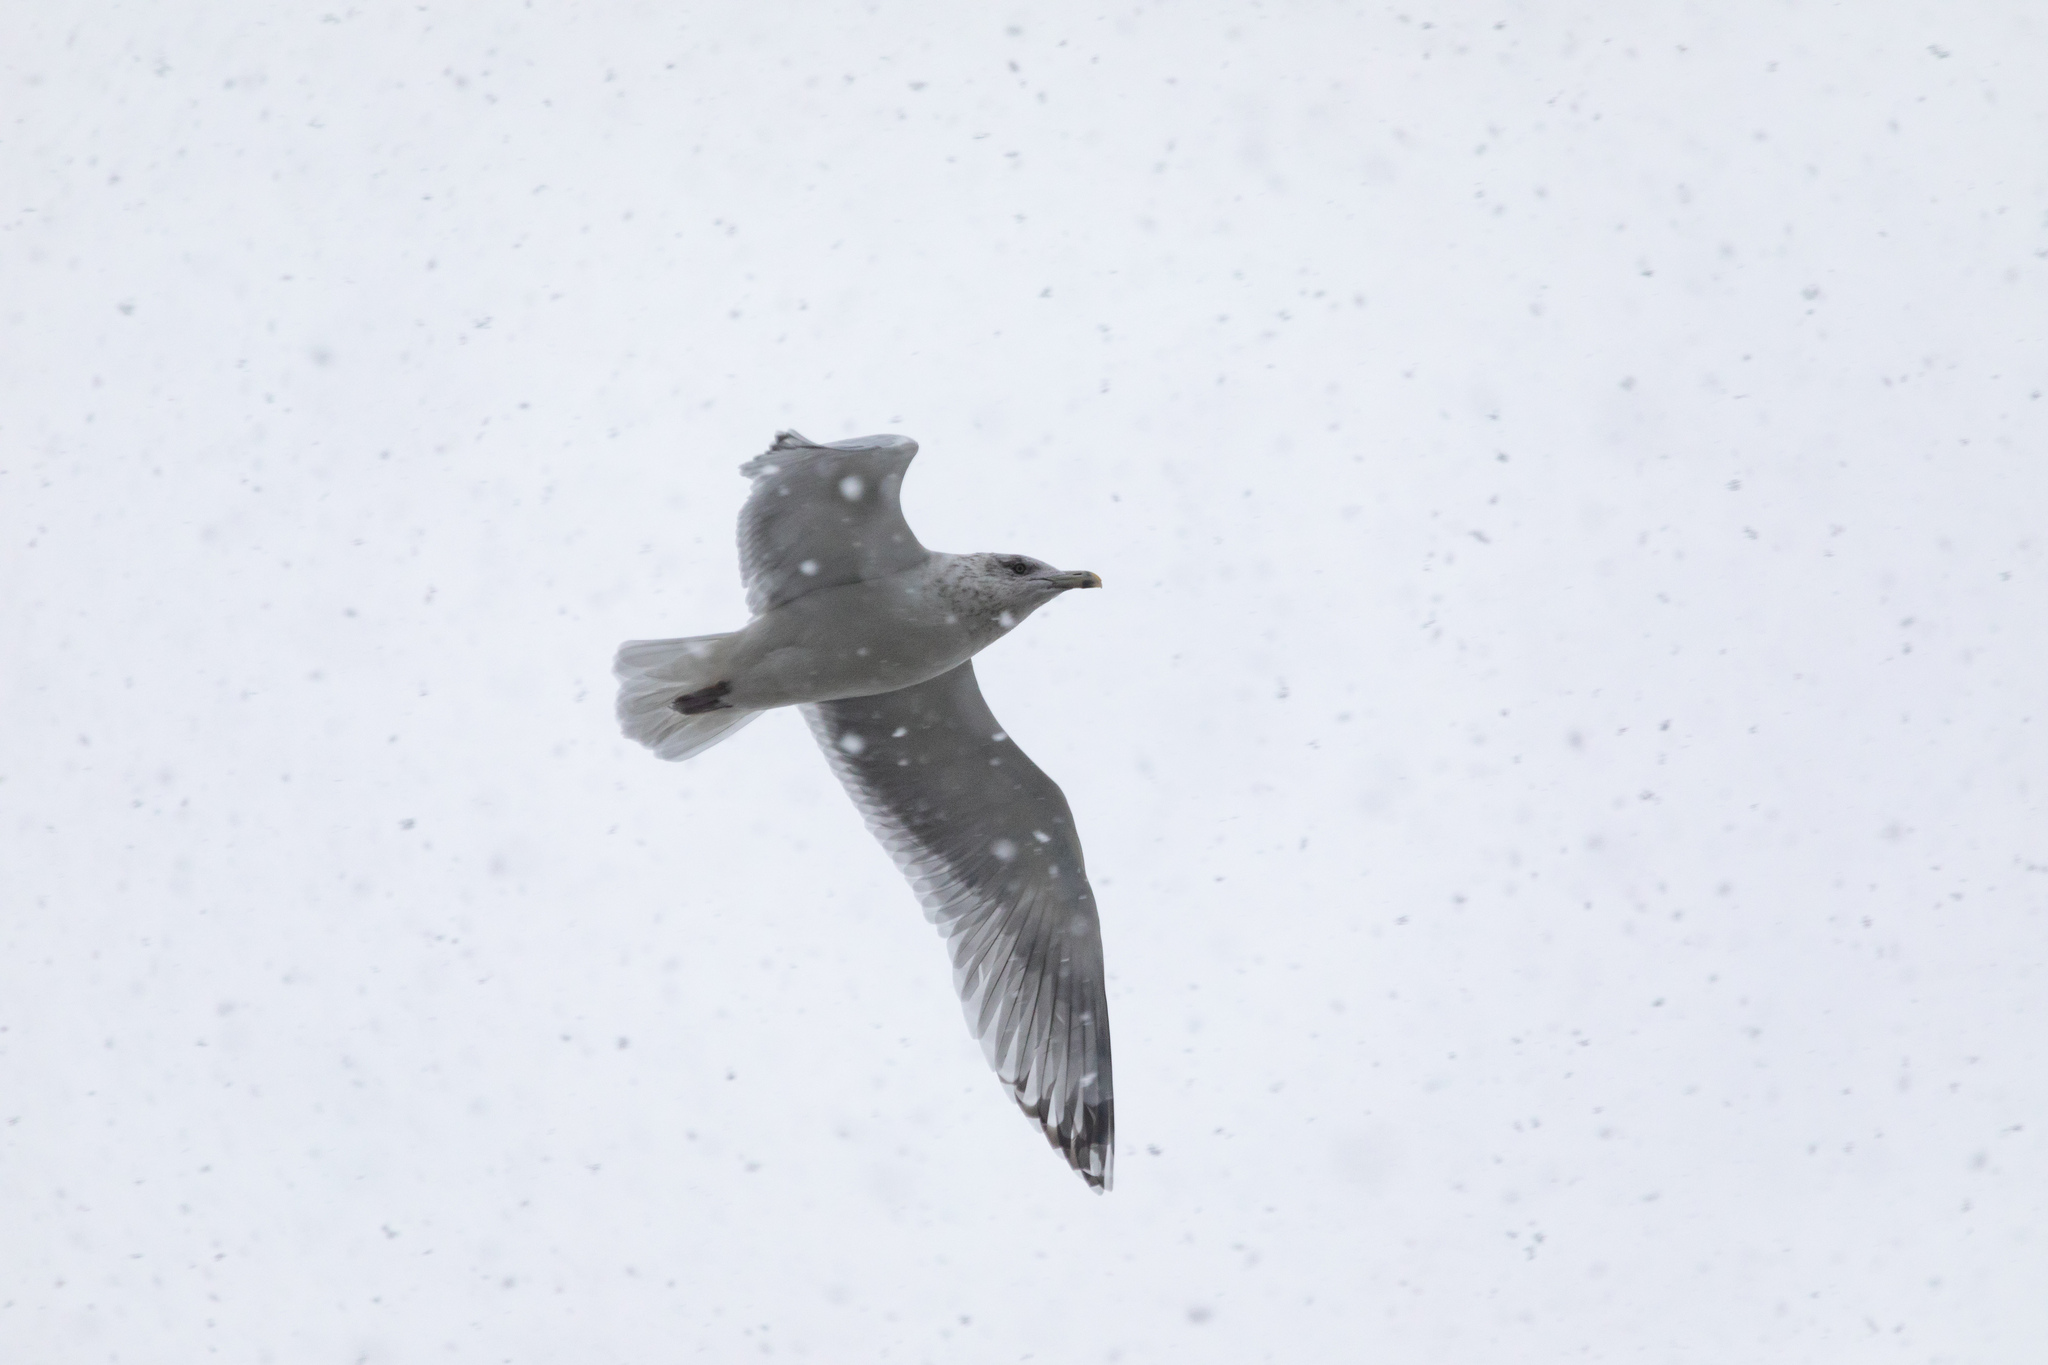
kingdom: Animalia
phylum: Chordata
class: Aves
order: Charadriiformes
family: Laridae
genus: Larus
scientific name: Larus argentatus
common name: Herring gull
